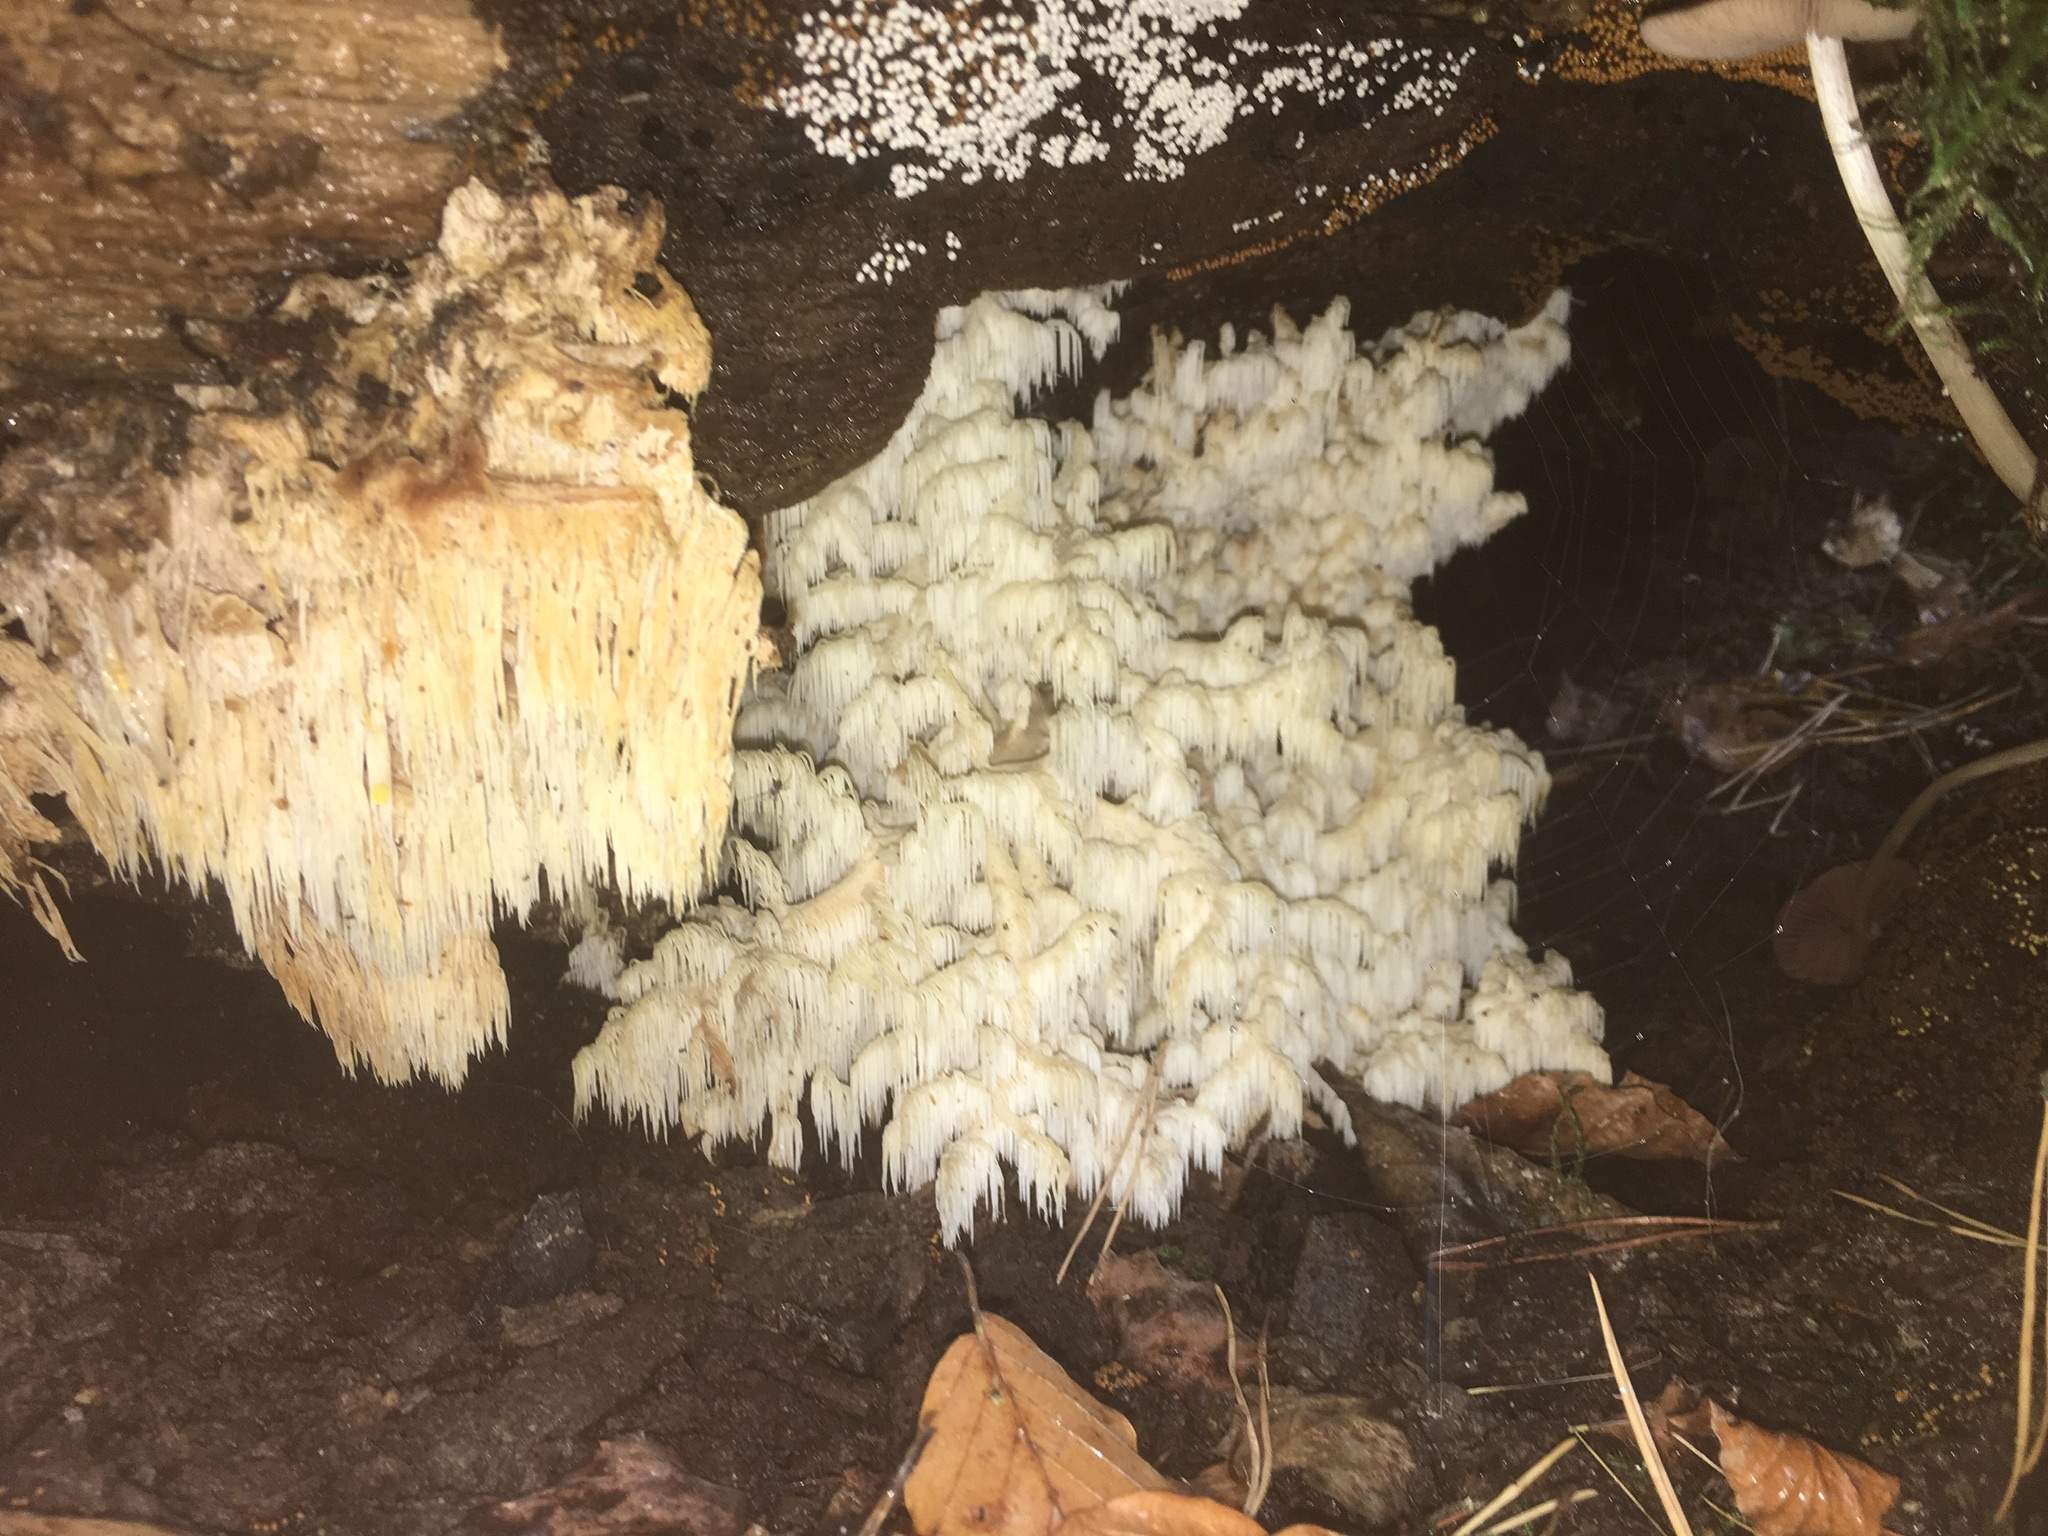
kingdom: Fungi
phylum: Basidiomycota
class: Agaricomycetes
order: Russulales
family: Hericiaceae
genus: Hericium
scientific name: Hericium coralloides
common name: Coral tooth
